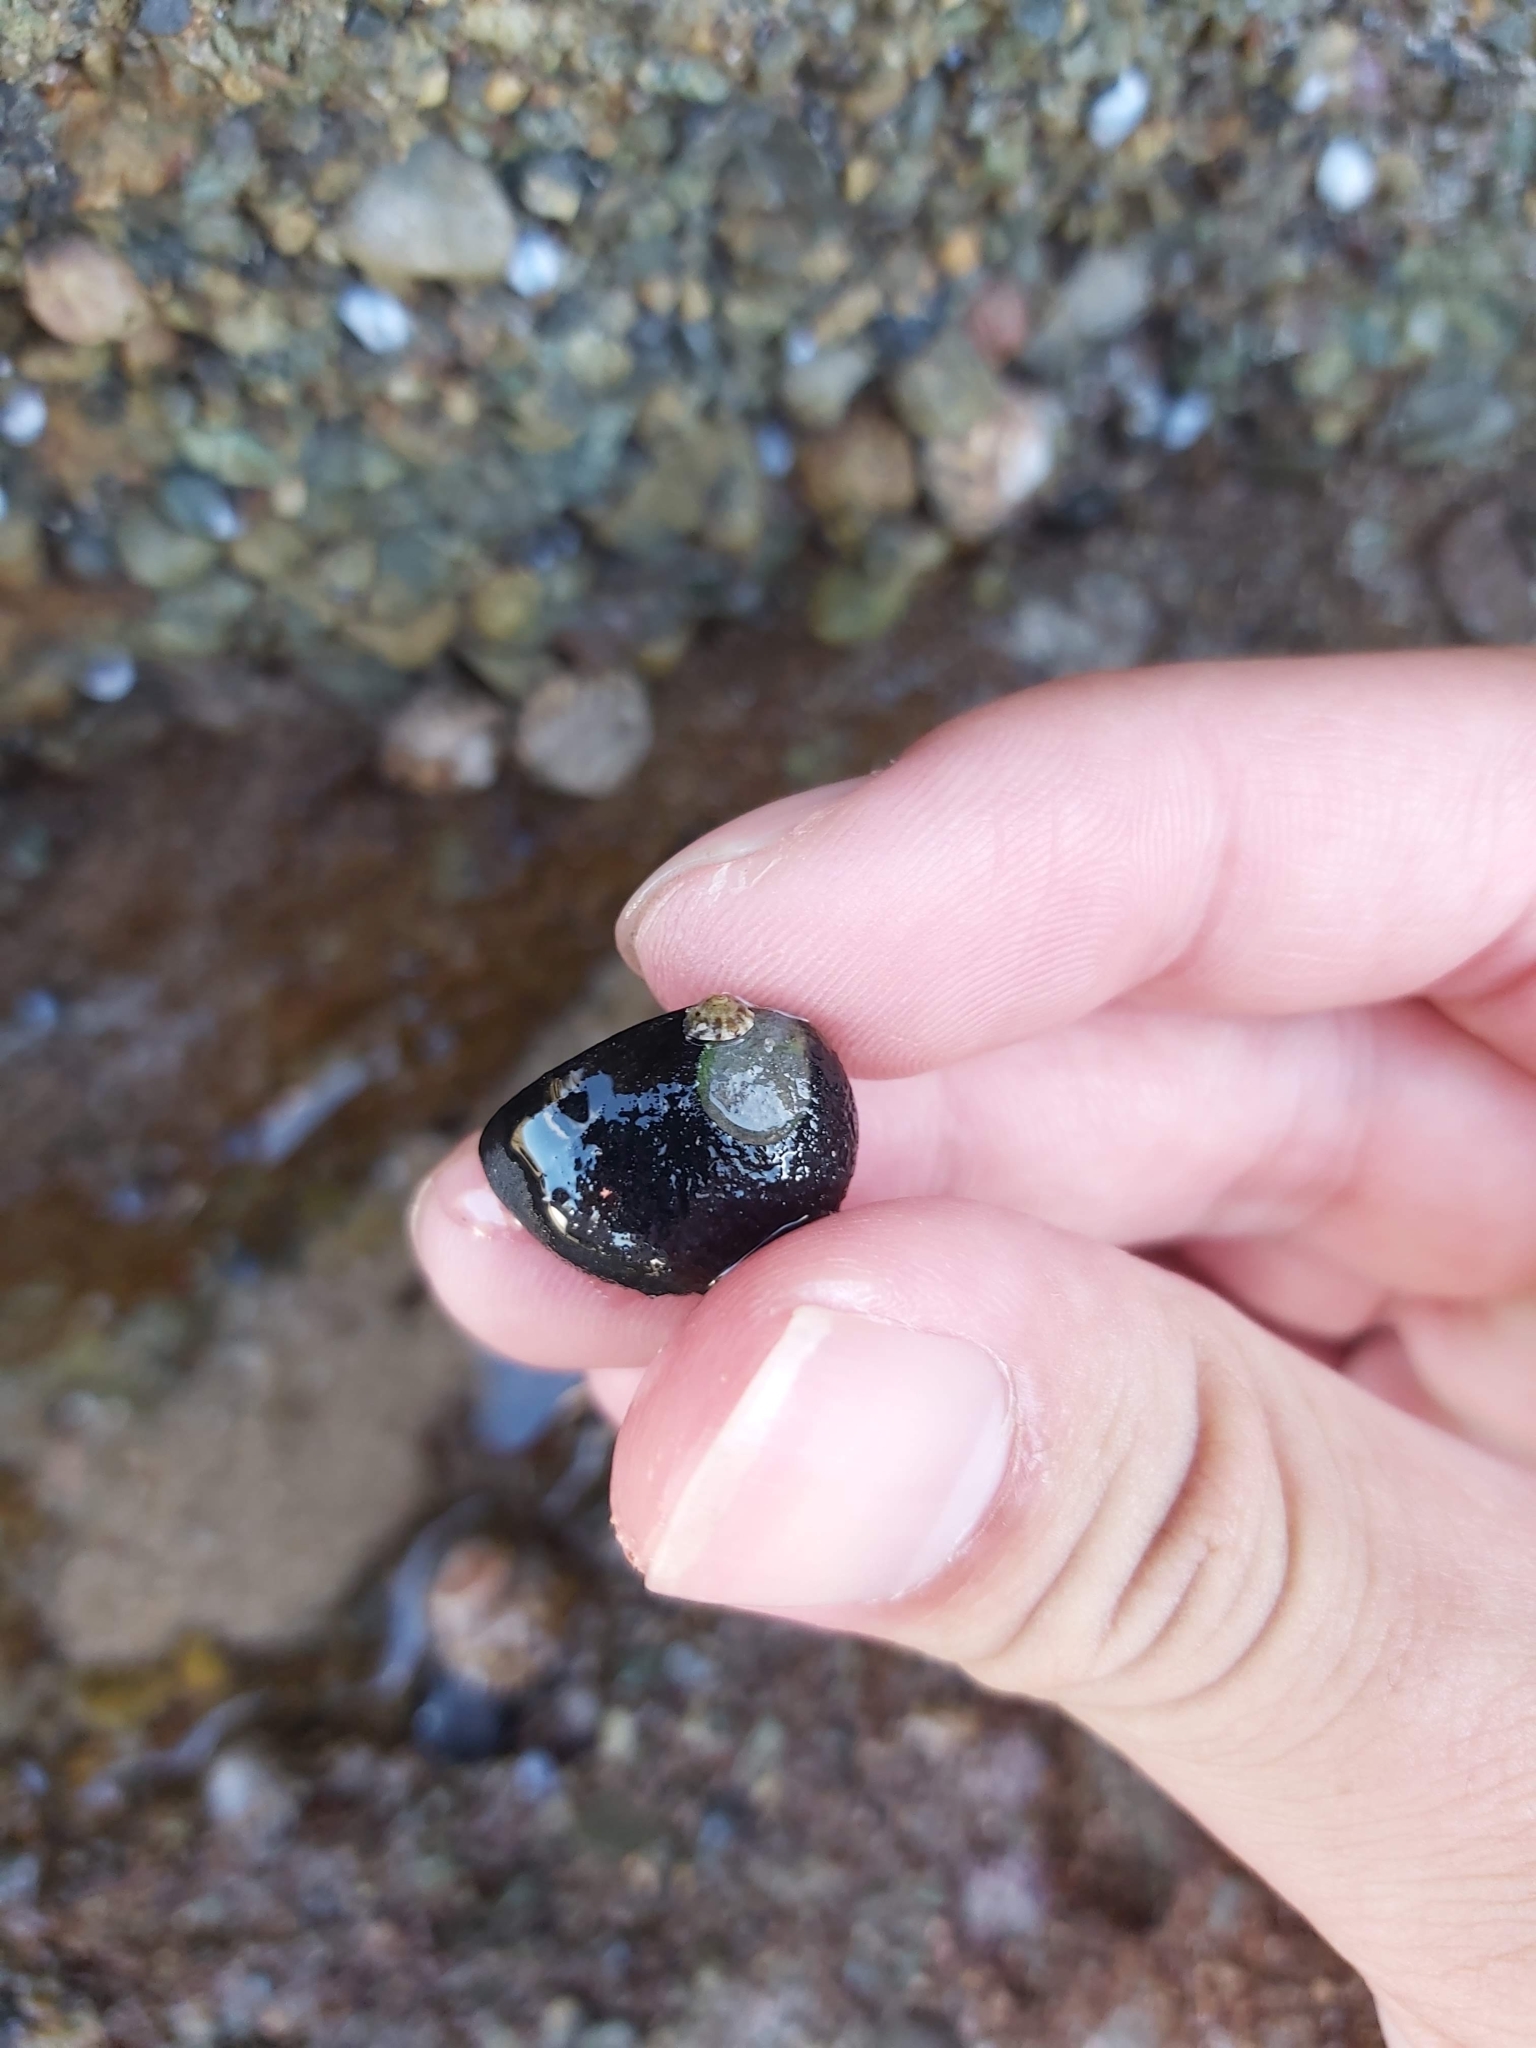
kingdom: Animalia
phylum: Mollusca
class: Gastropoda
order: Cycloneritida
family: Neritidae
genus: Nerita
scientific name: Nerita melanotragus
